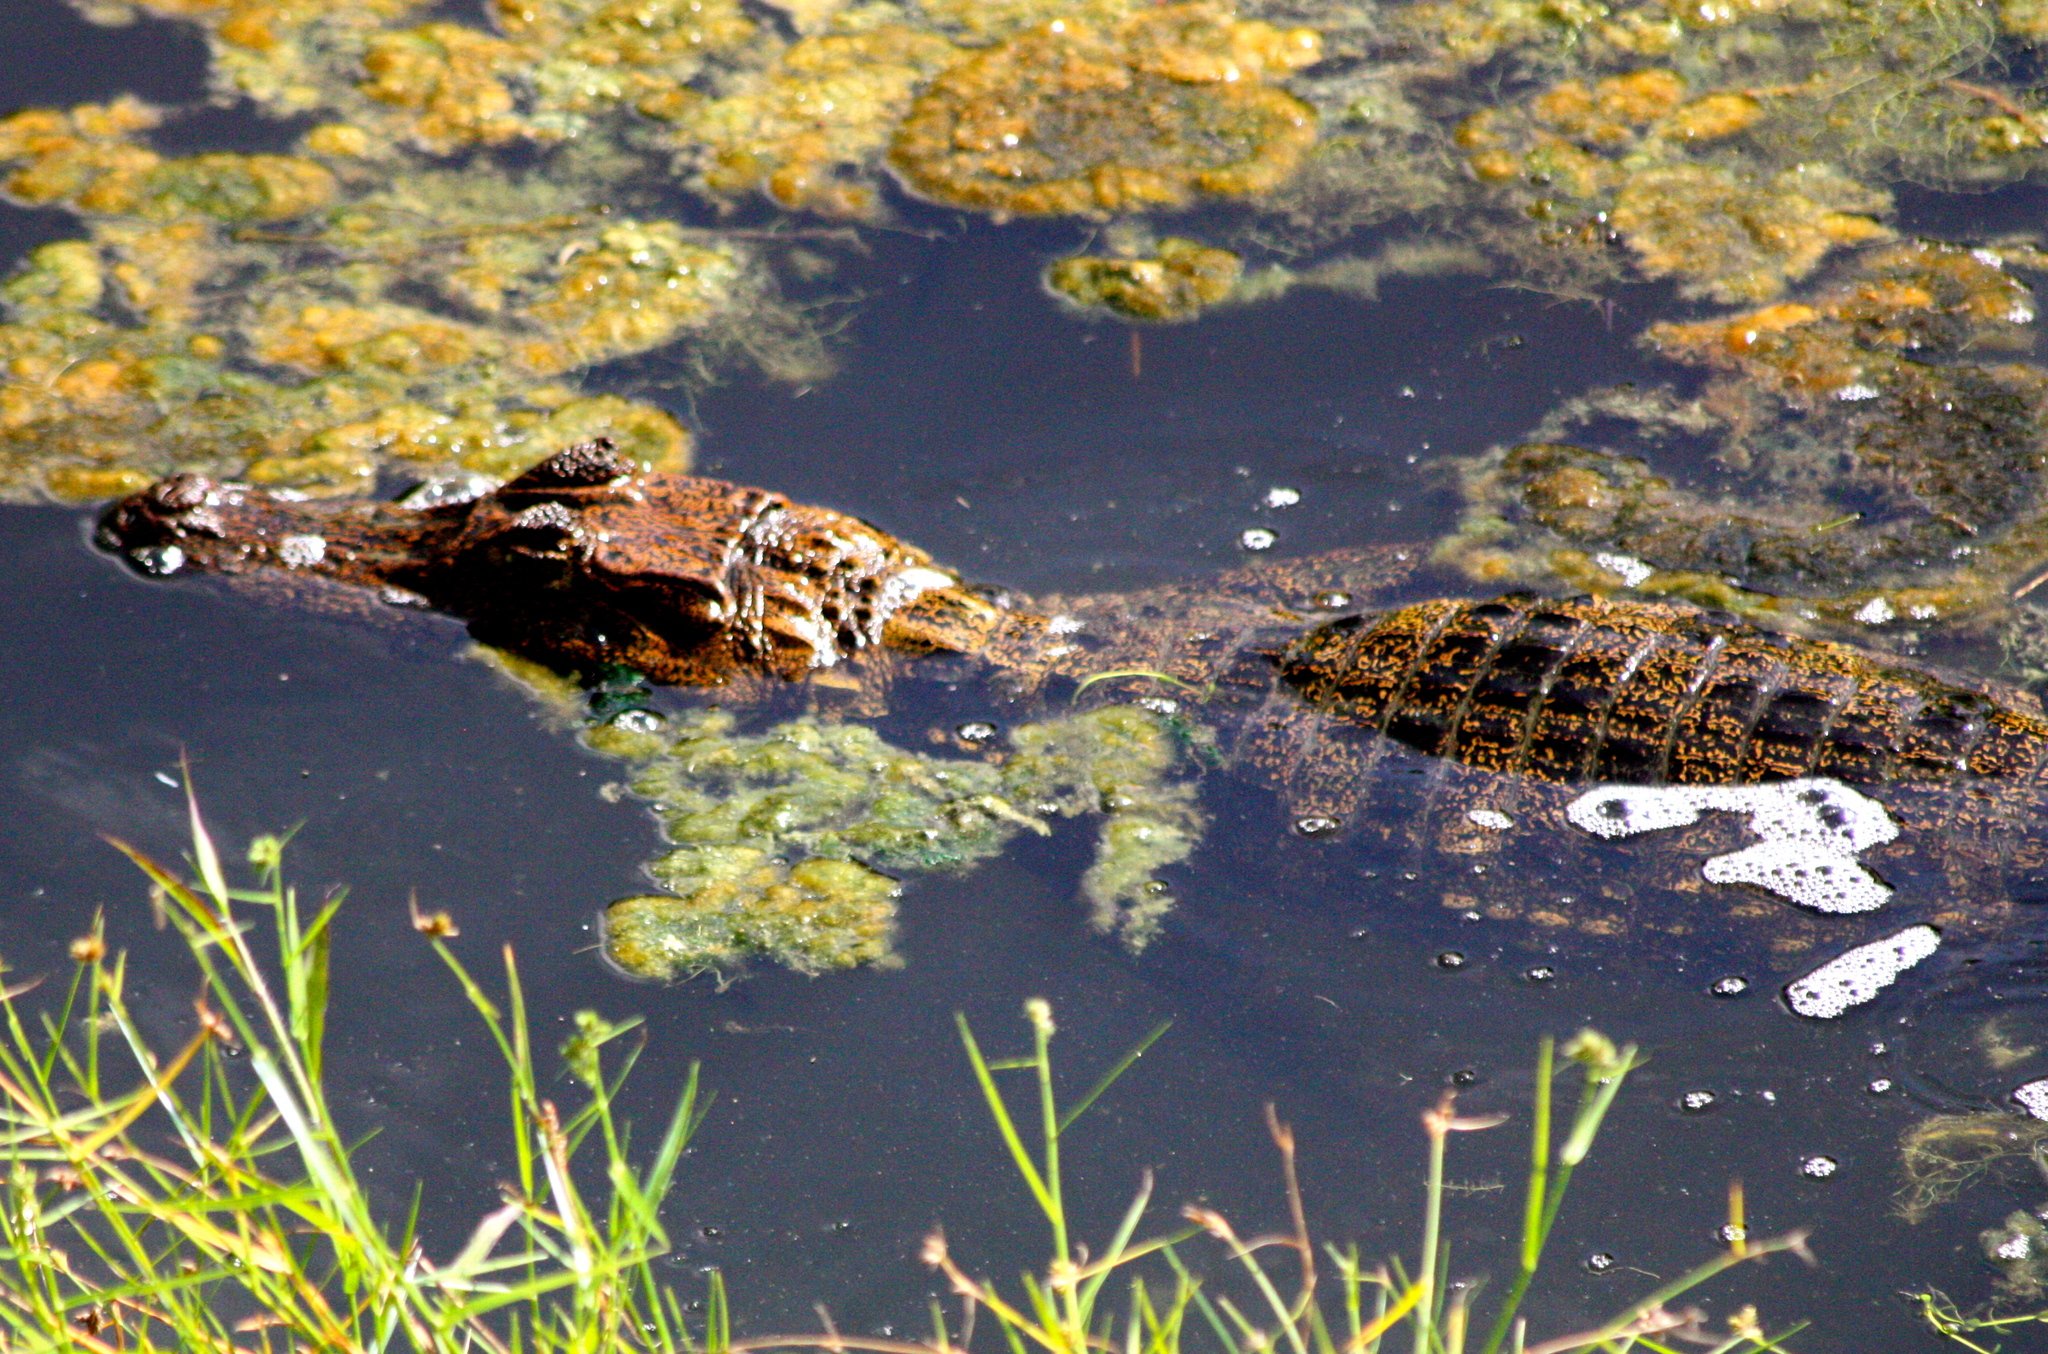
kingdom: Animalia
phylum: Chordata
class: Crocodylia
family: Alligatoridae
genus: Caiman
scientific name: Caiman crocodilus
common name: Common caiman
